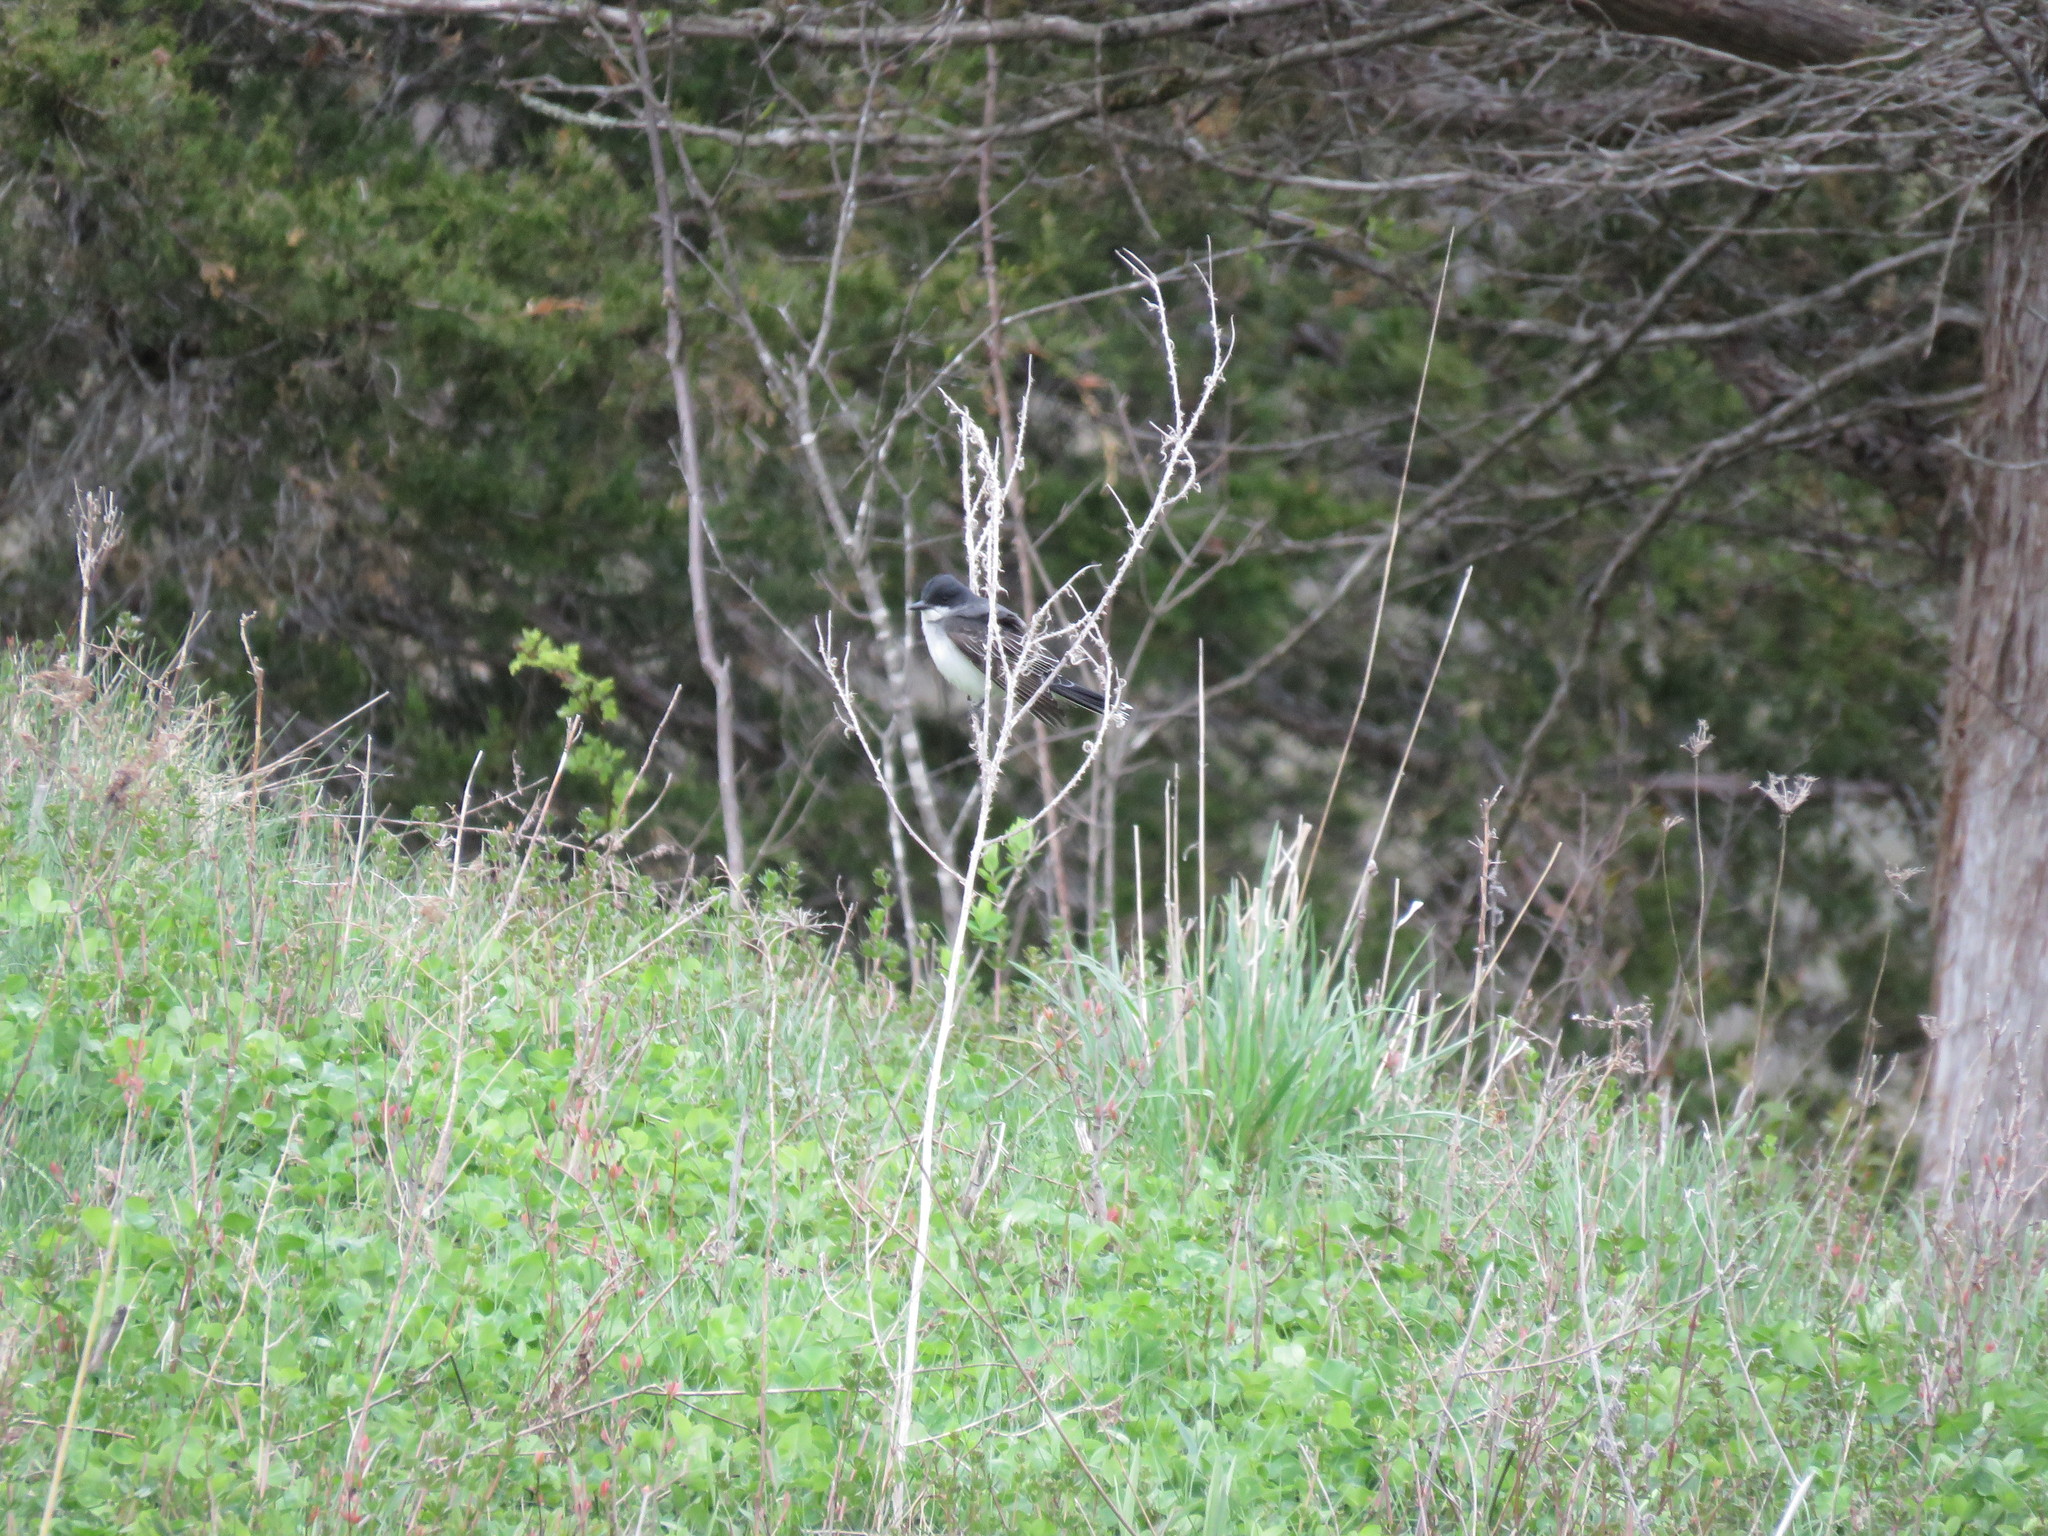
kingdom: Animalia
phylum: Chordata
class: Aves
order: Passeriformes
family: Tyrannidae
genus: Tyrannus
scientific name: Tyrannus tyrannus
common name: Eastern kingbird
